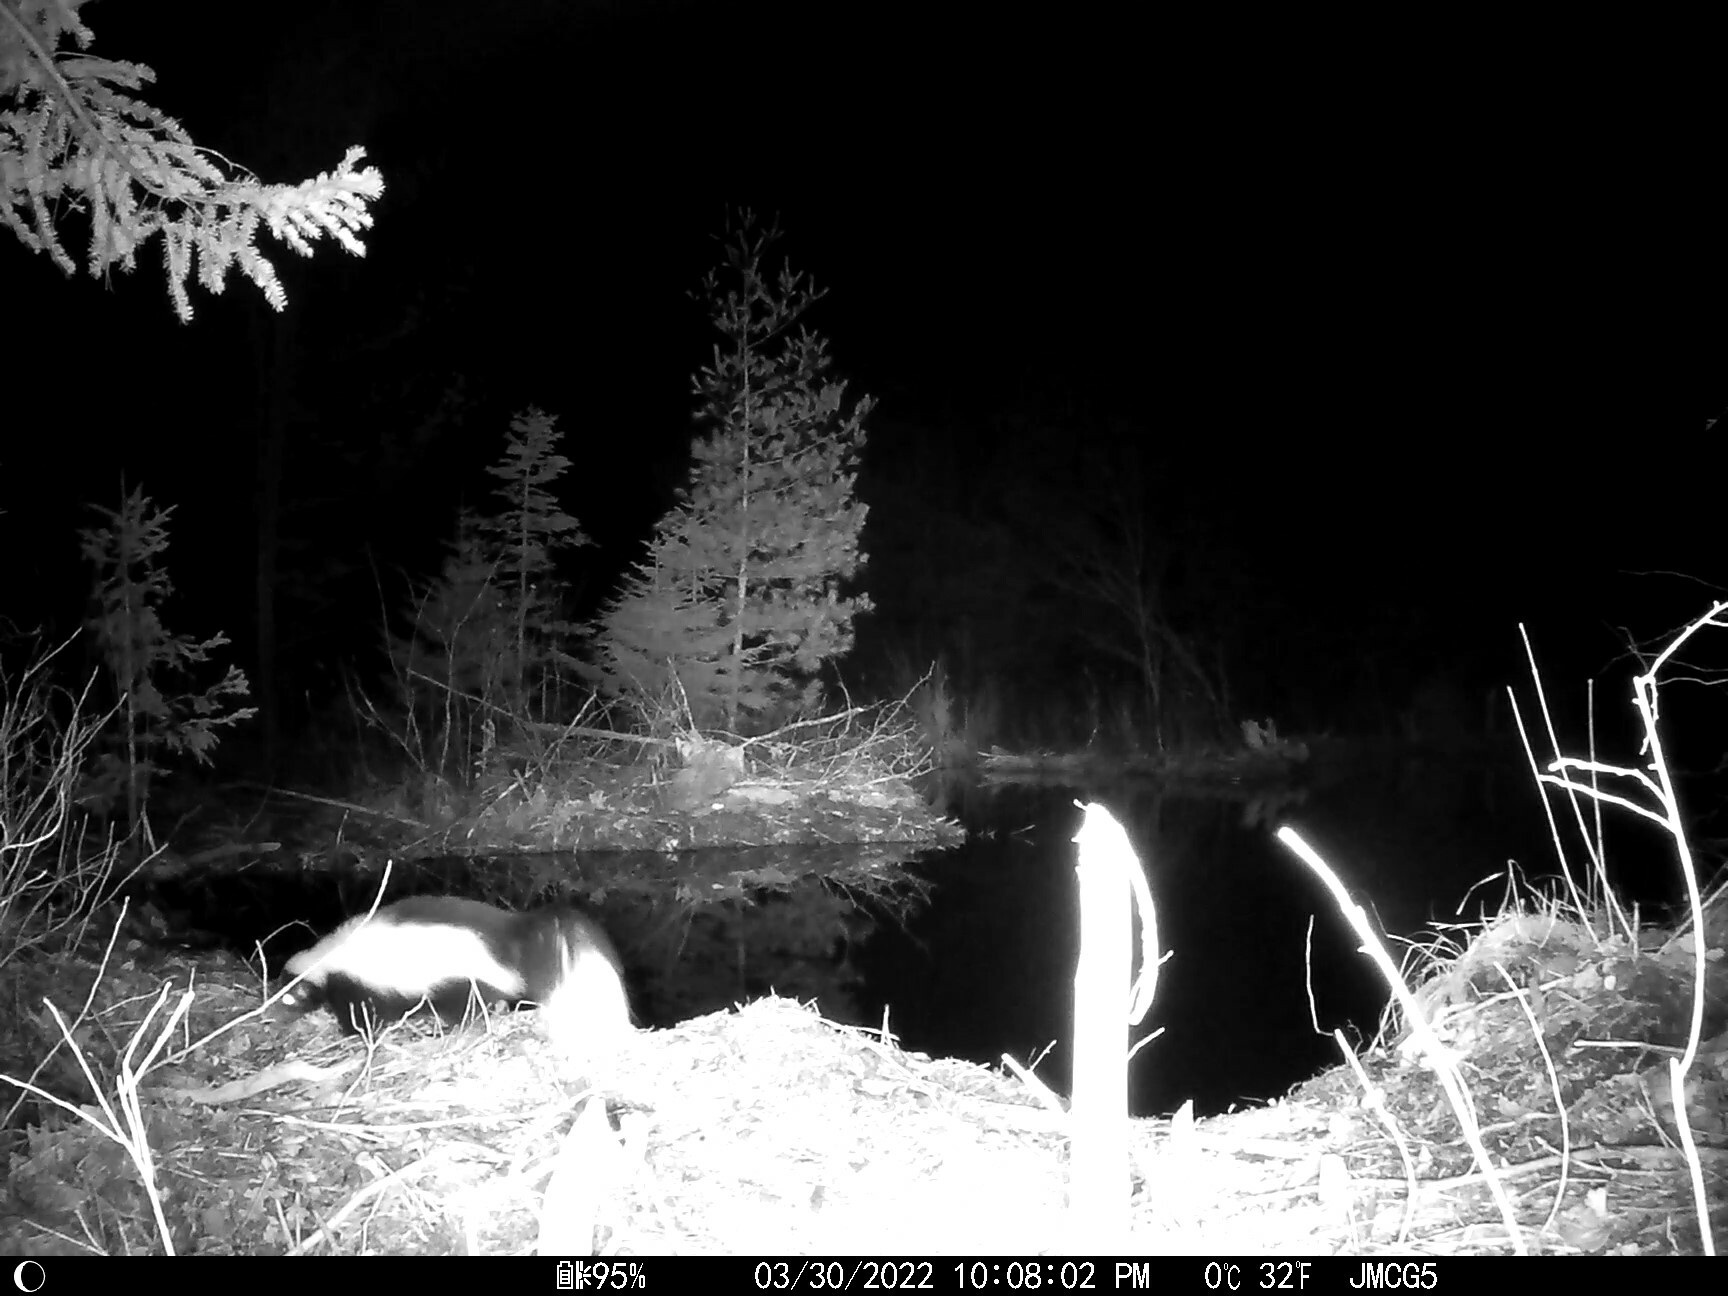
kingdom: Animalia
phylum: Chordata
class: Mammalia
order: Carnivora
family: Mephitidae
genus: Mephitis
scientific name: Mephitis mephitis
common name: Striped skunk
